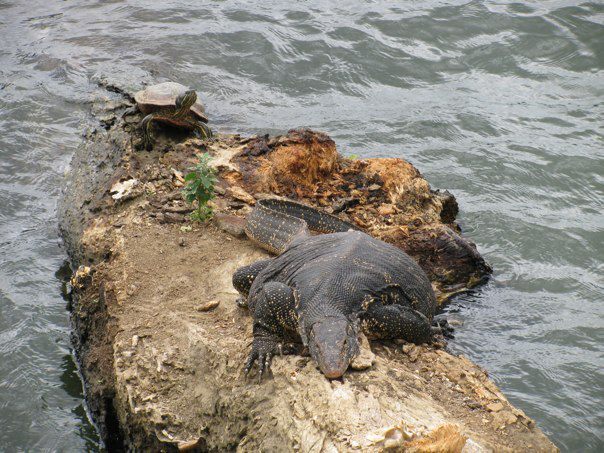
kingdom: Animalia
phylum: Chordata
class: Testudines
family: Emydidae
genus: Trachemys
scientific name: Trachemys scripta
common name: Slider
